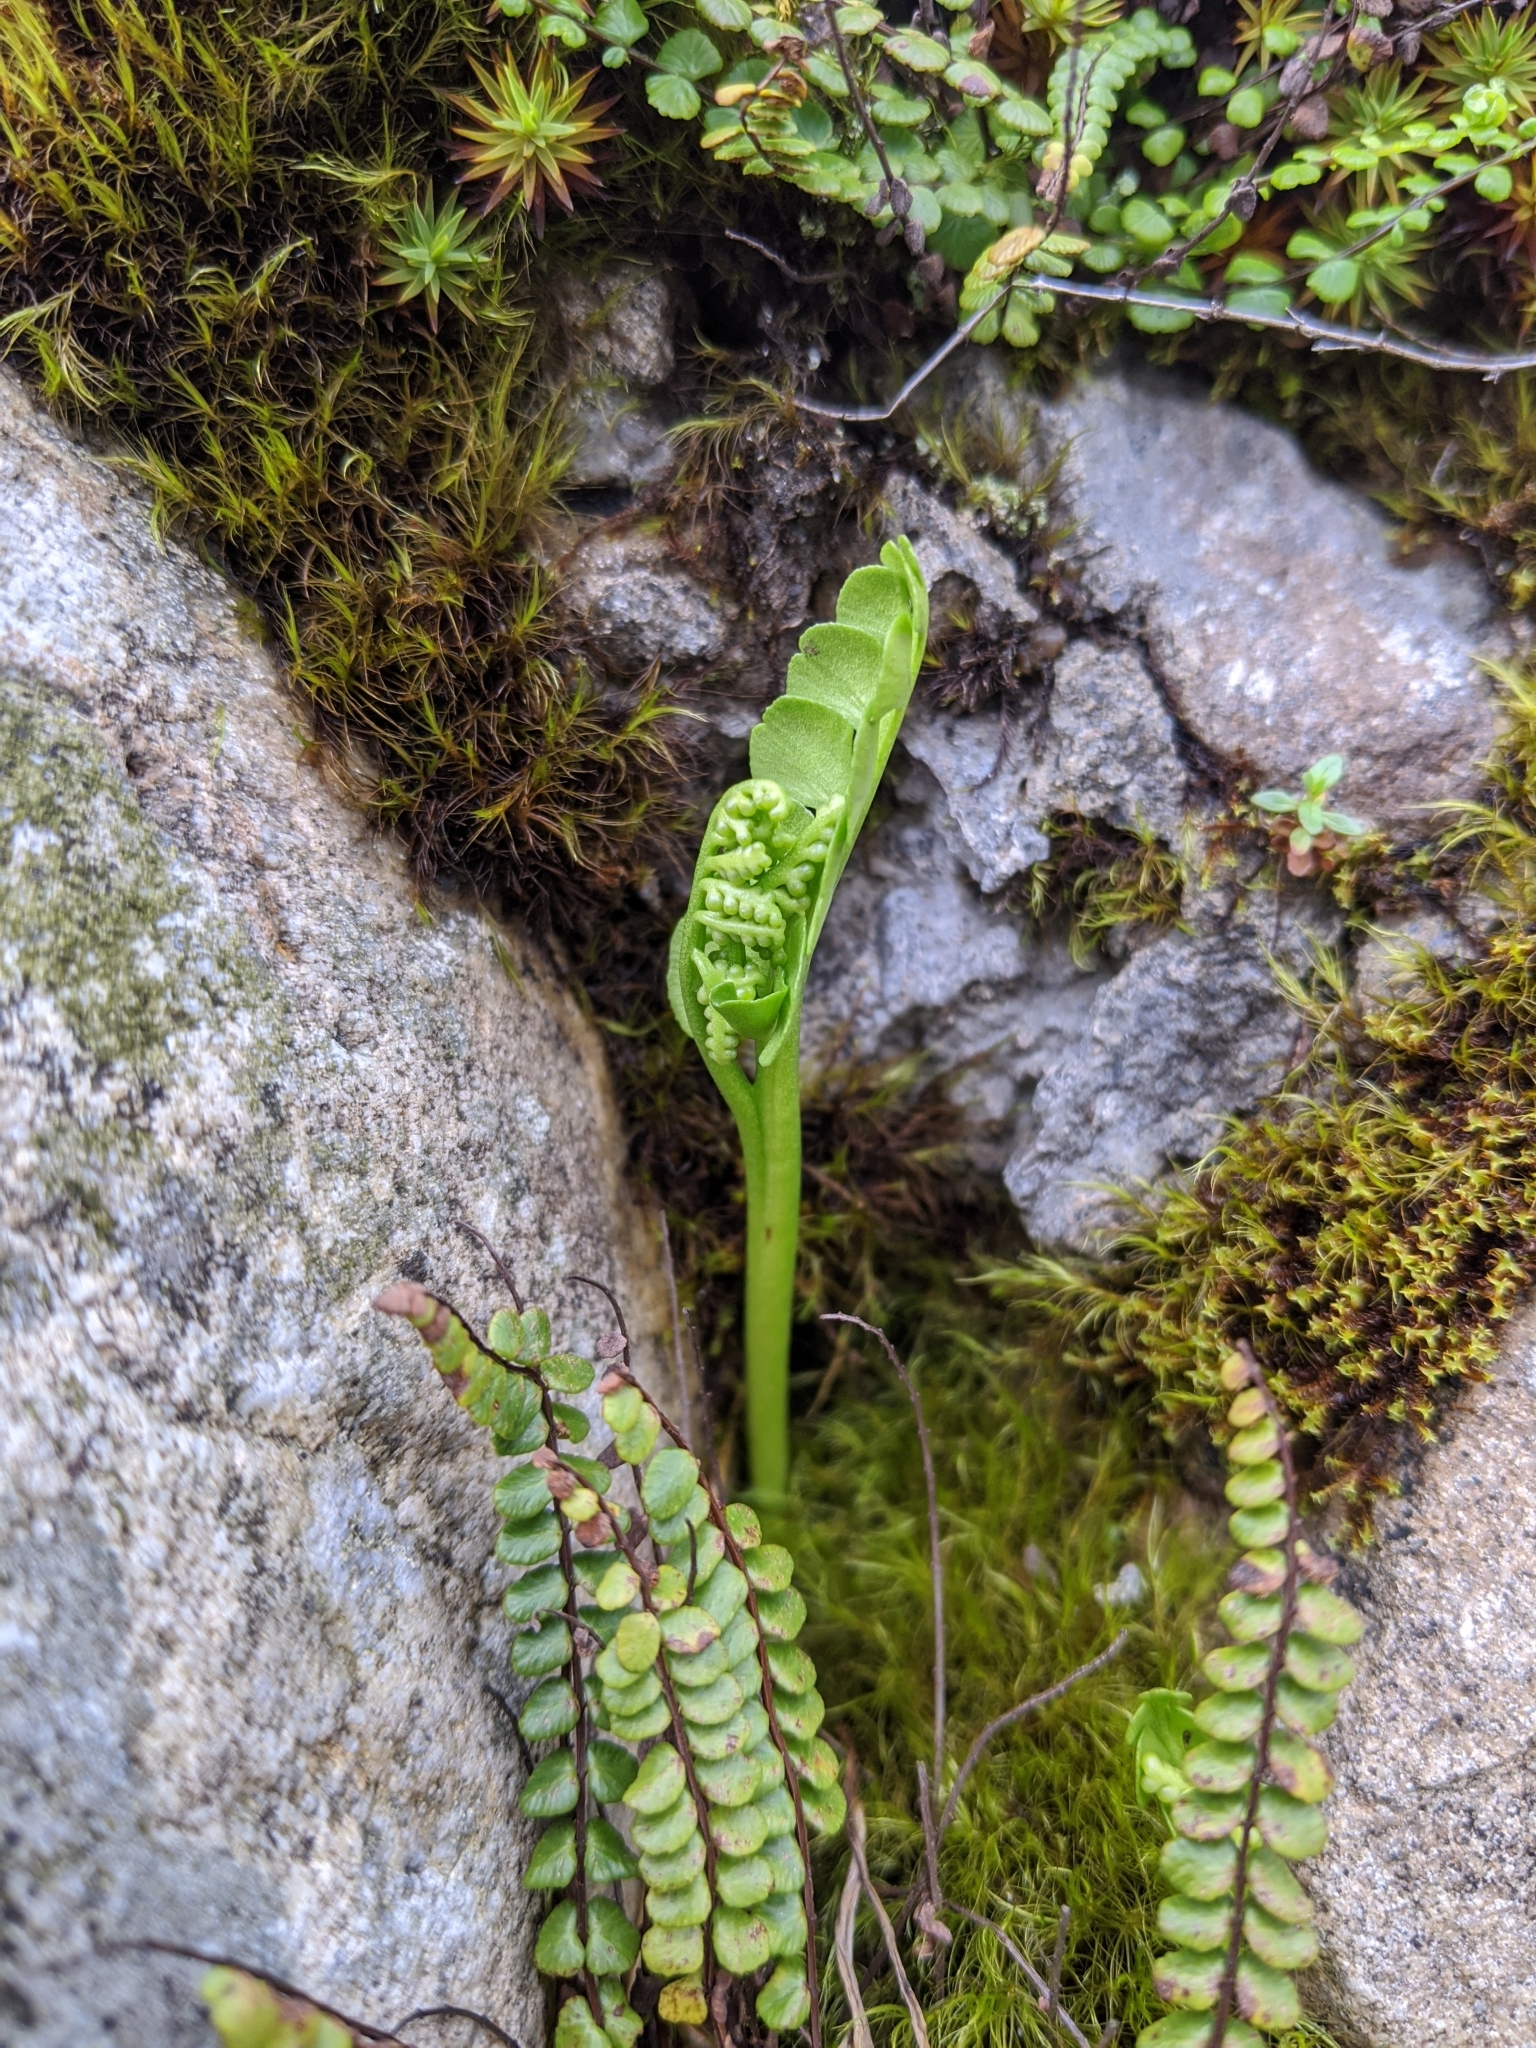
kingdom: Plantae
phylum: Tracheophyta
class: Polypodiopsida
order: Ophioglossales
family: Ophioglossaceae
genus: Botrychium
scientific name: Botrychium lunaria
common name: Moonwort
